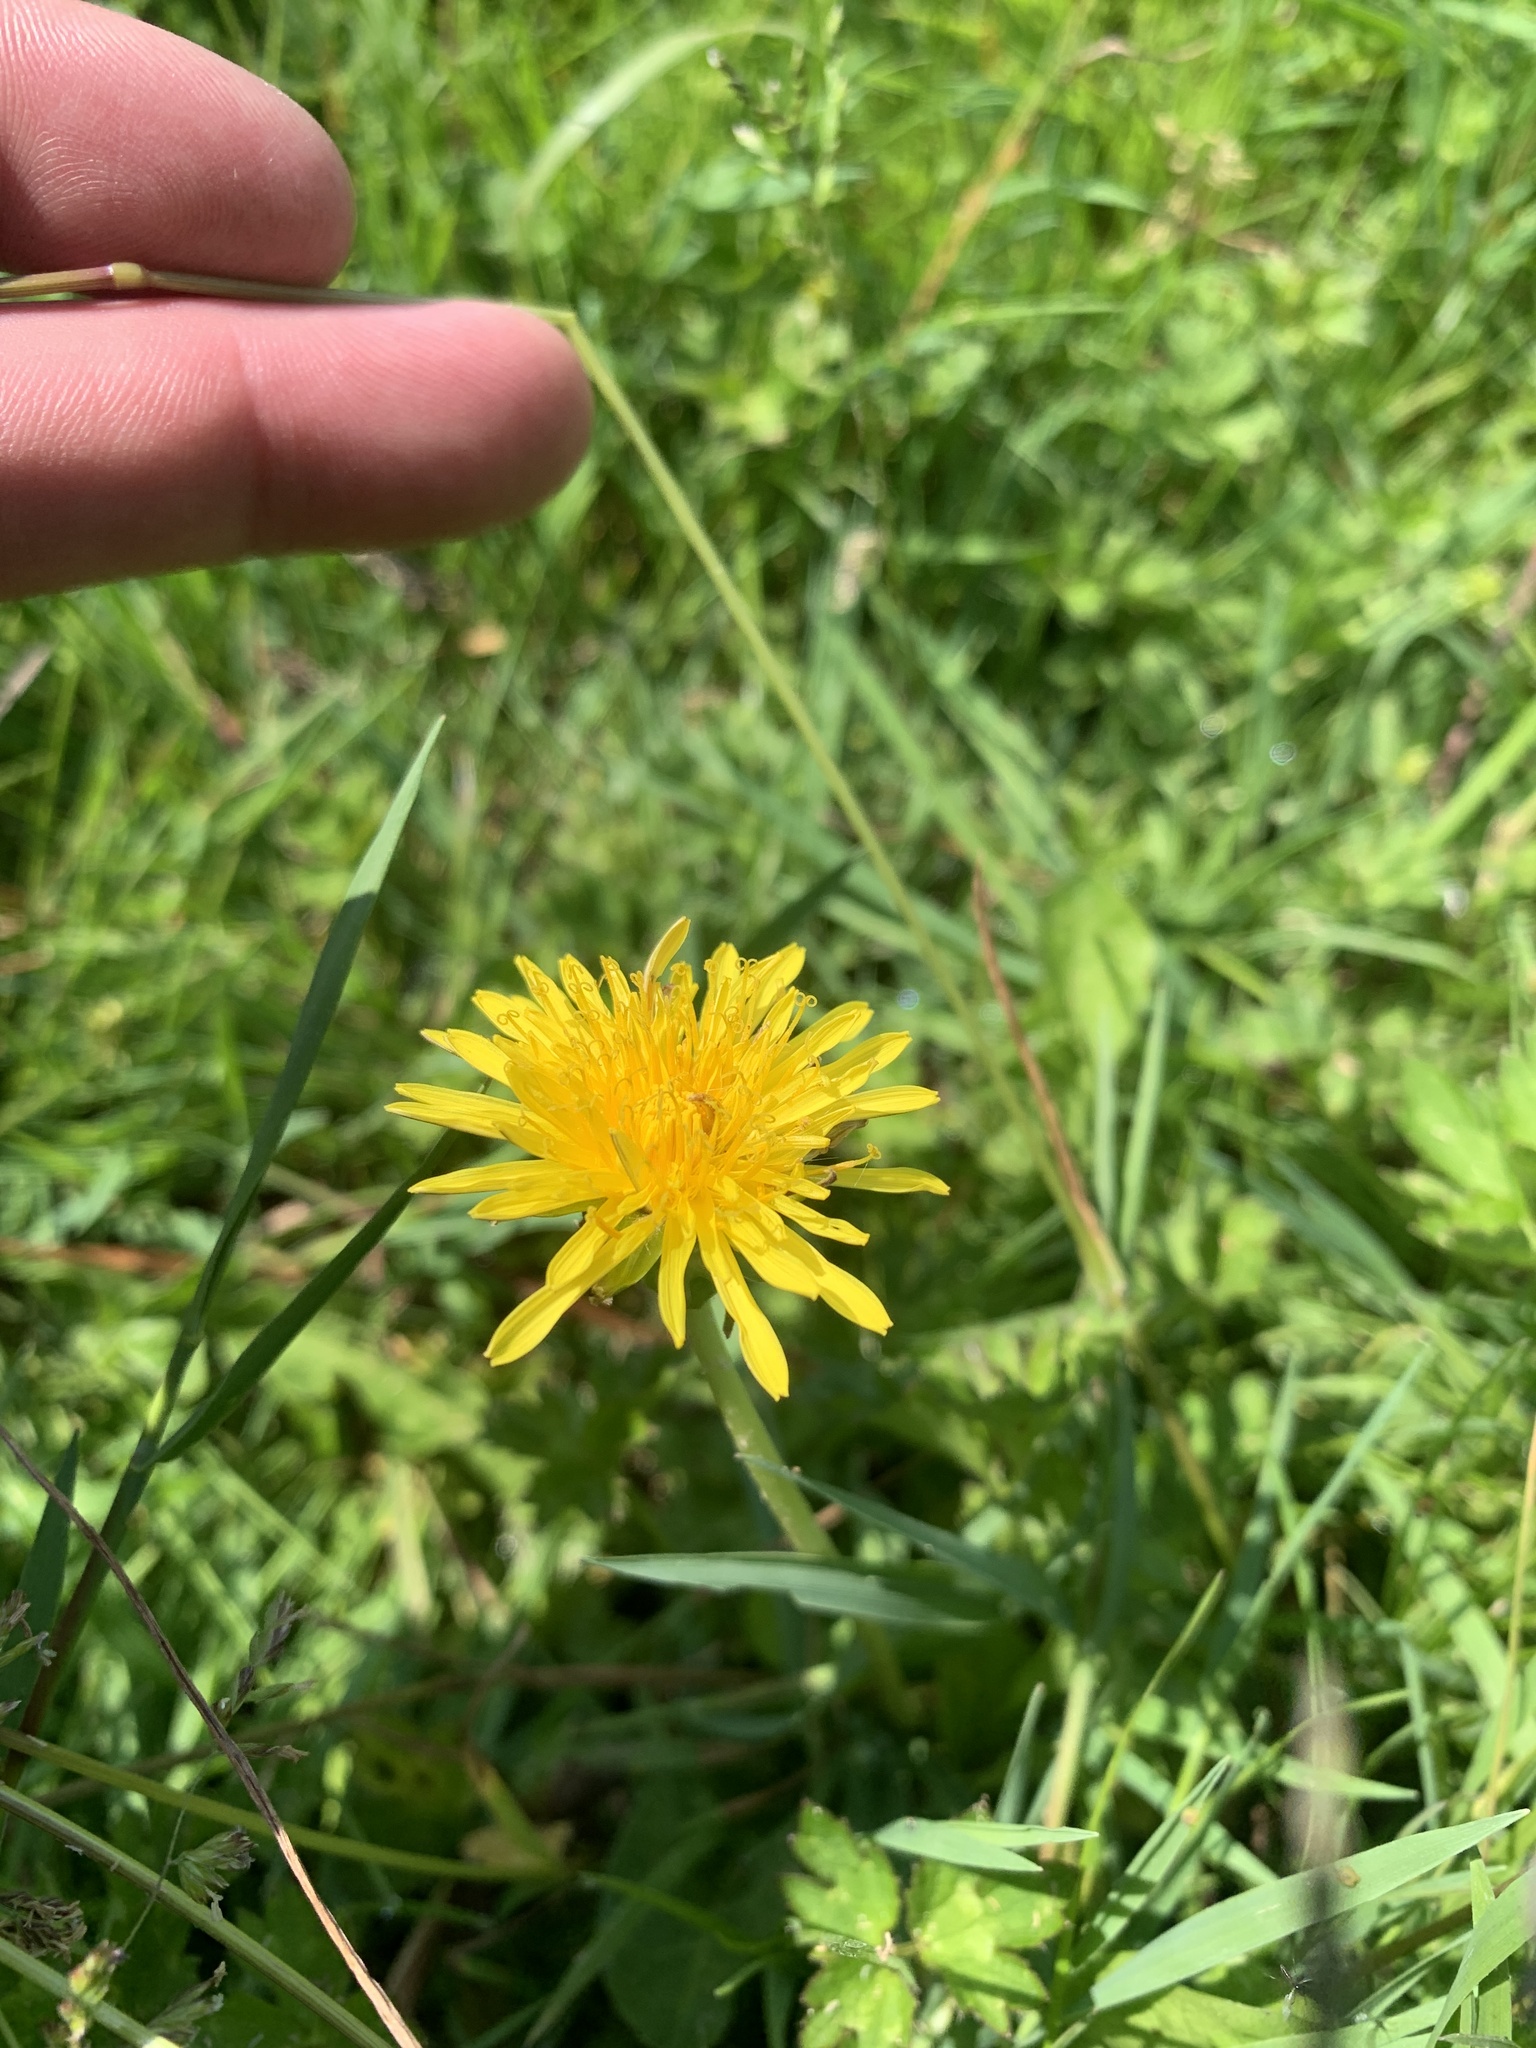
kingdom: Plantae
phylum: Tracheophyta
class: Magnoliopsida
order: Asterales
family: Asteraceae
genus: Taraxacum
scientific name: Taraxacum officinale
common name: Common dandelion
